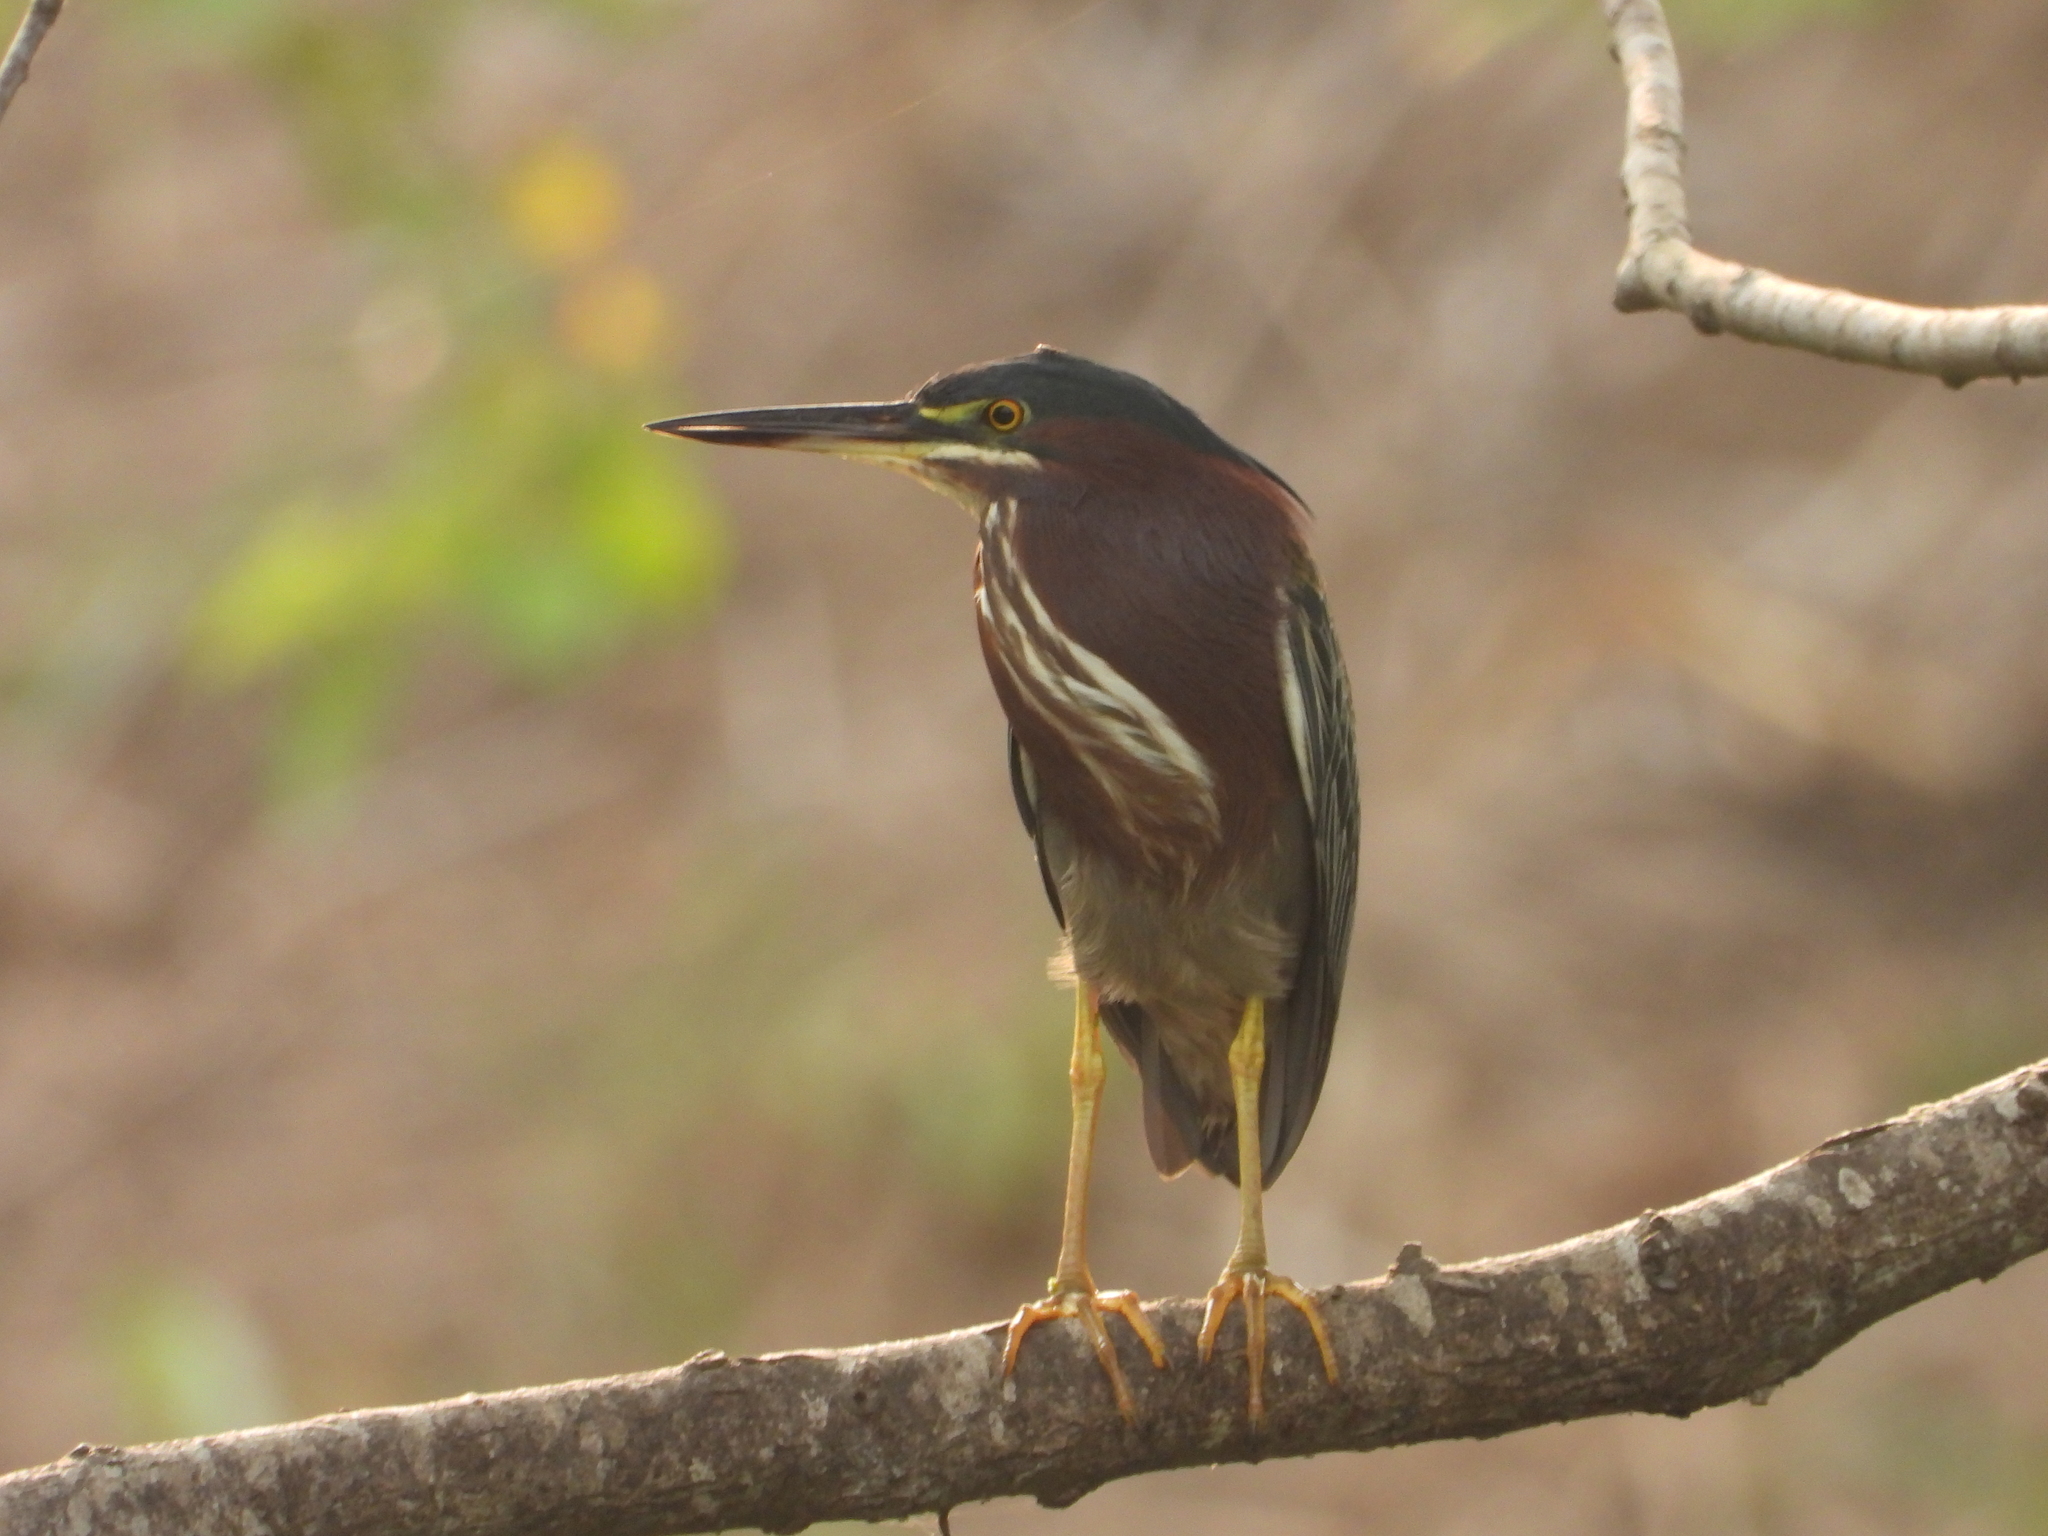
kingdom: Animalia
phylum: Chordata
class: Aves
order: Pelecaniformes
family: Ardeidae
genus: Butorides
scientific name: Butorides virescens
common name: Green heron
